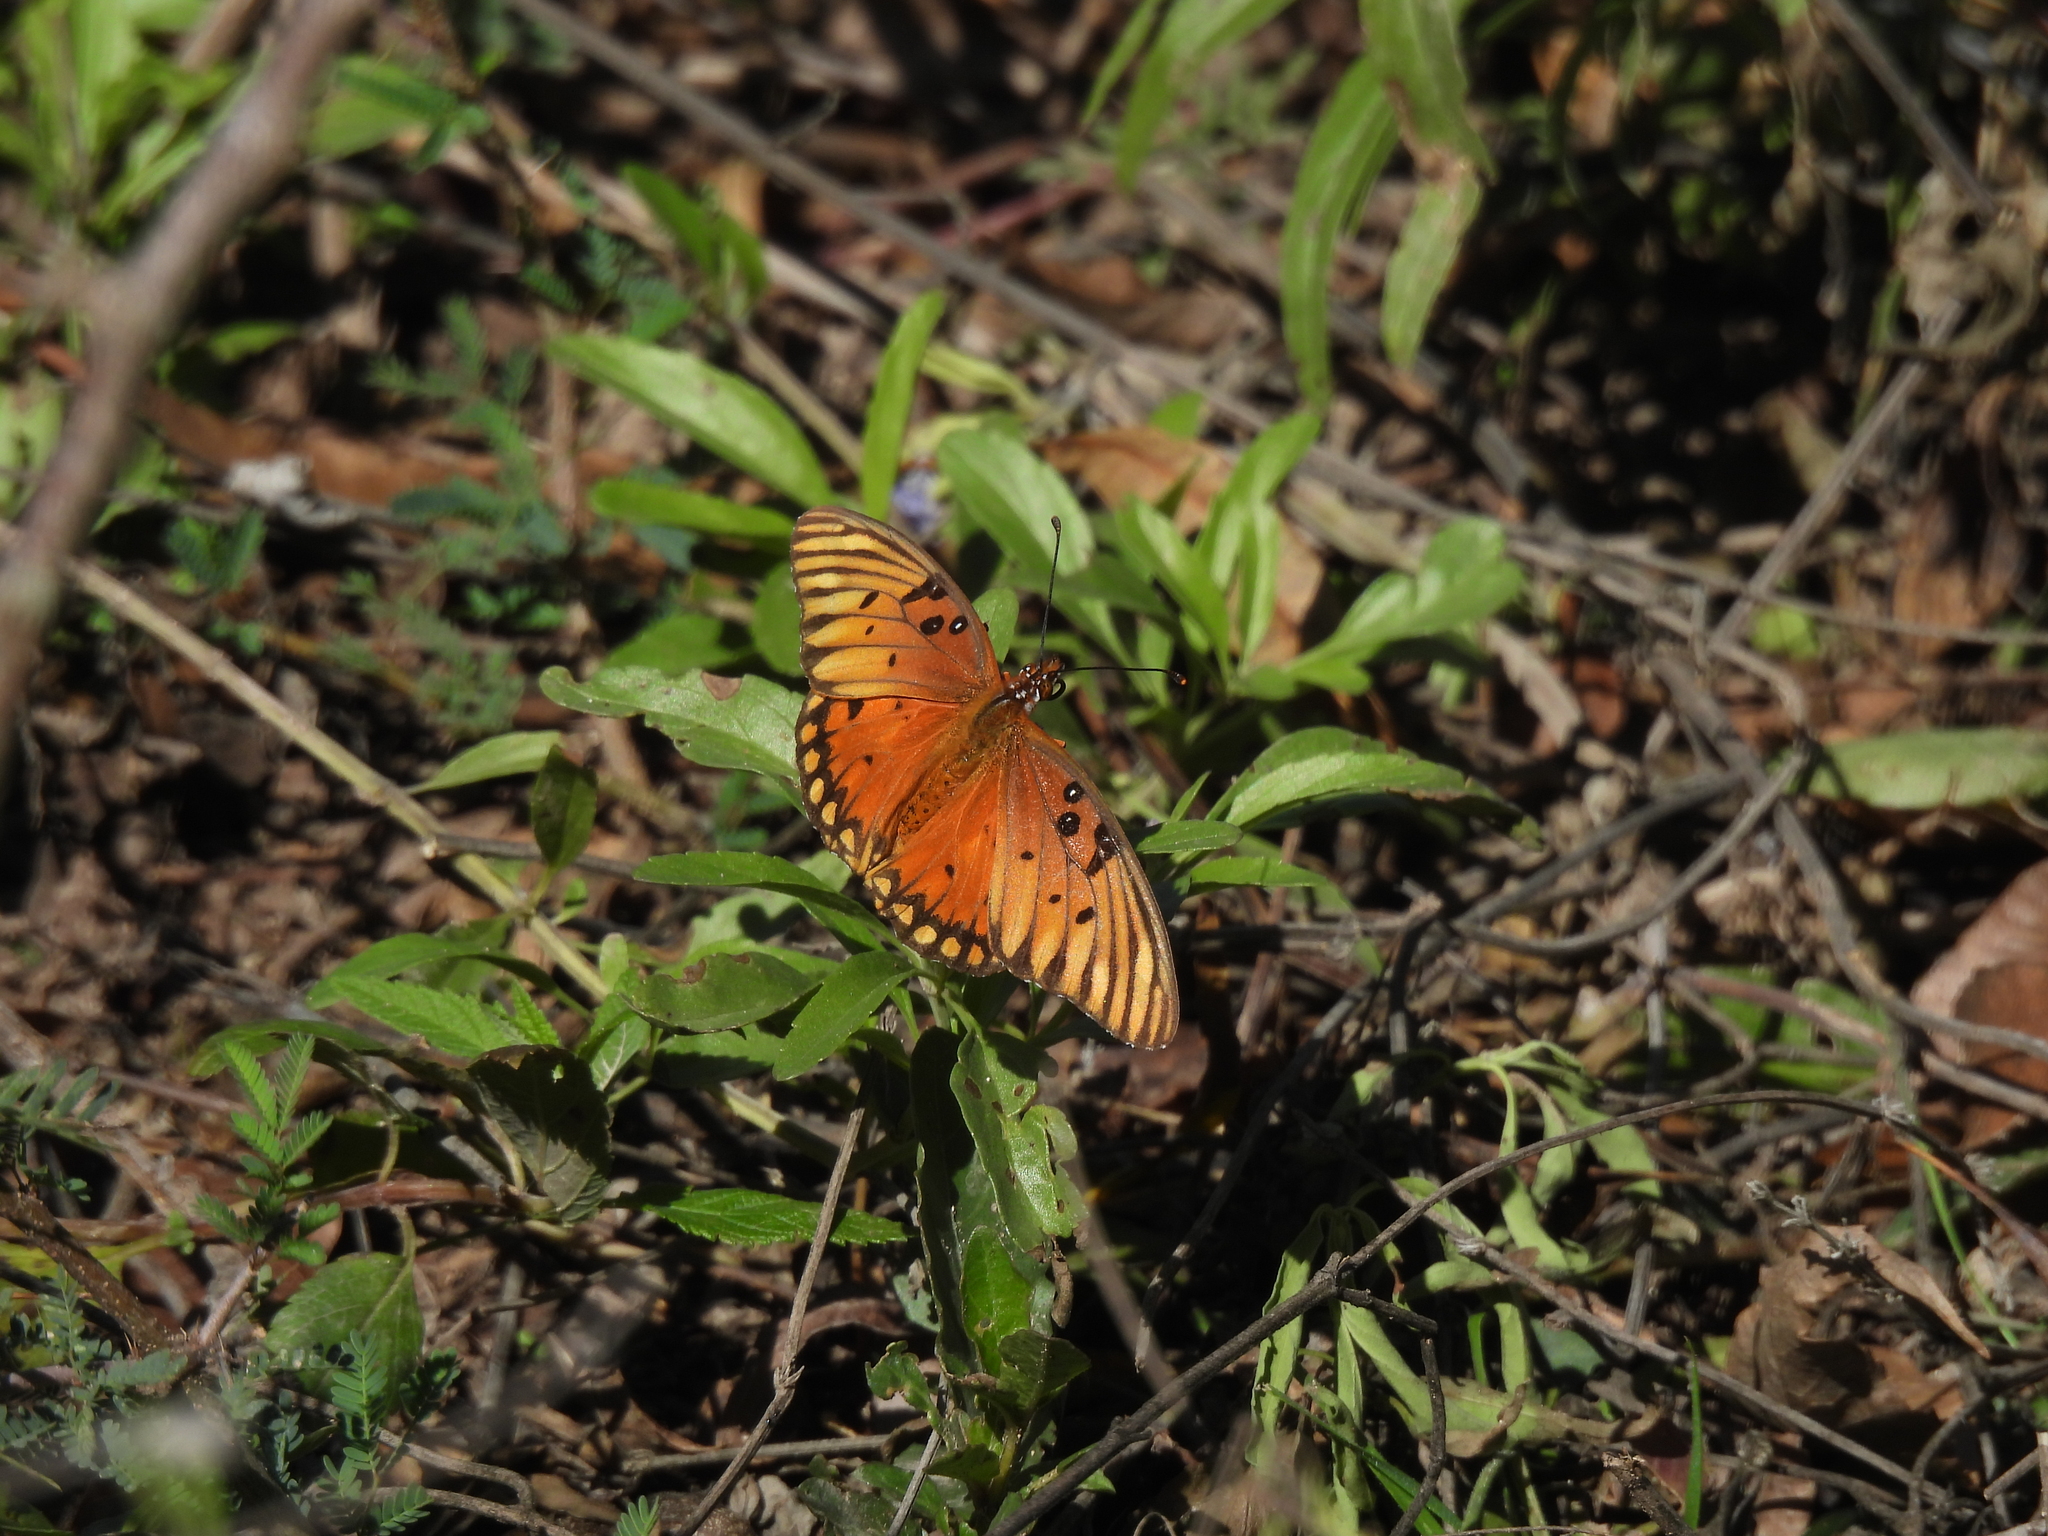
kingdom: Animalia
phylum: Arthropoda
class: Insecta
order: Lepidoptera
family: Nymphalidae
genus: Dione
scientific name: Dione vanillae
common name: Gulf fritillary
